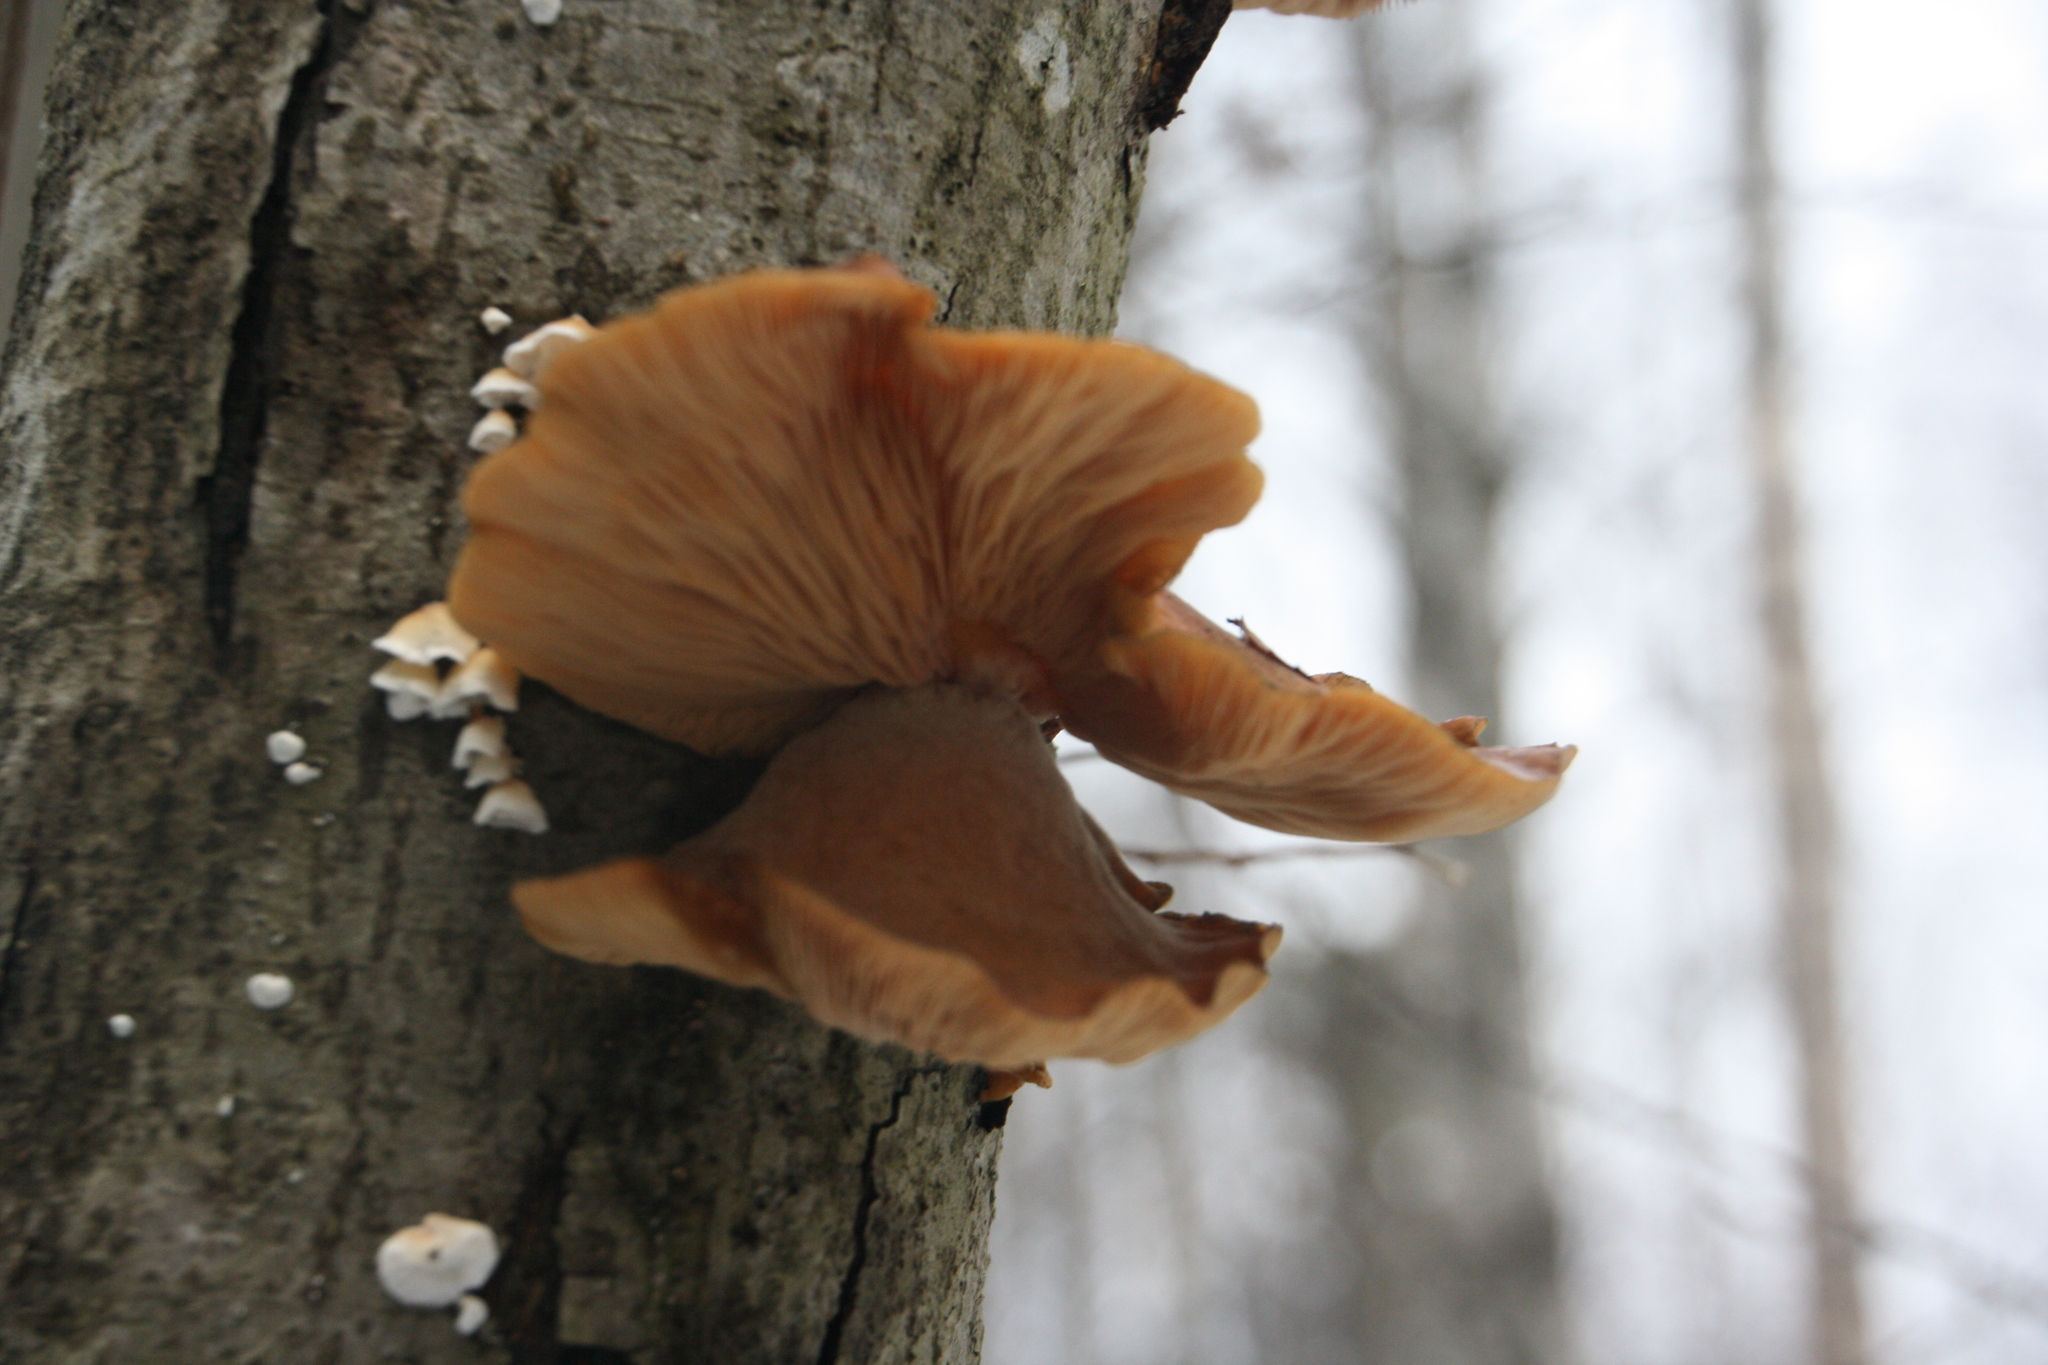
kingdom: Fungi
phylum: Basidiomycota
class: Agaricomycetes
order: Agaricales
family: Sarcomyxaceae
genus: Sarcomyxa
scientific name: Sarcomyxa serotina
